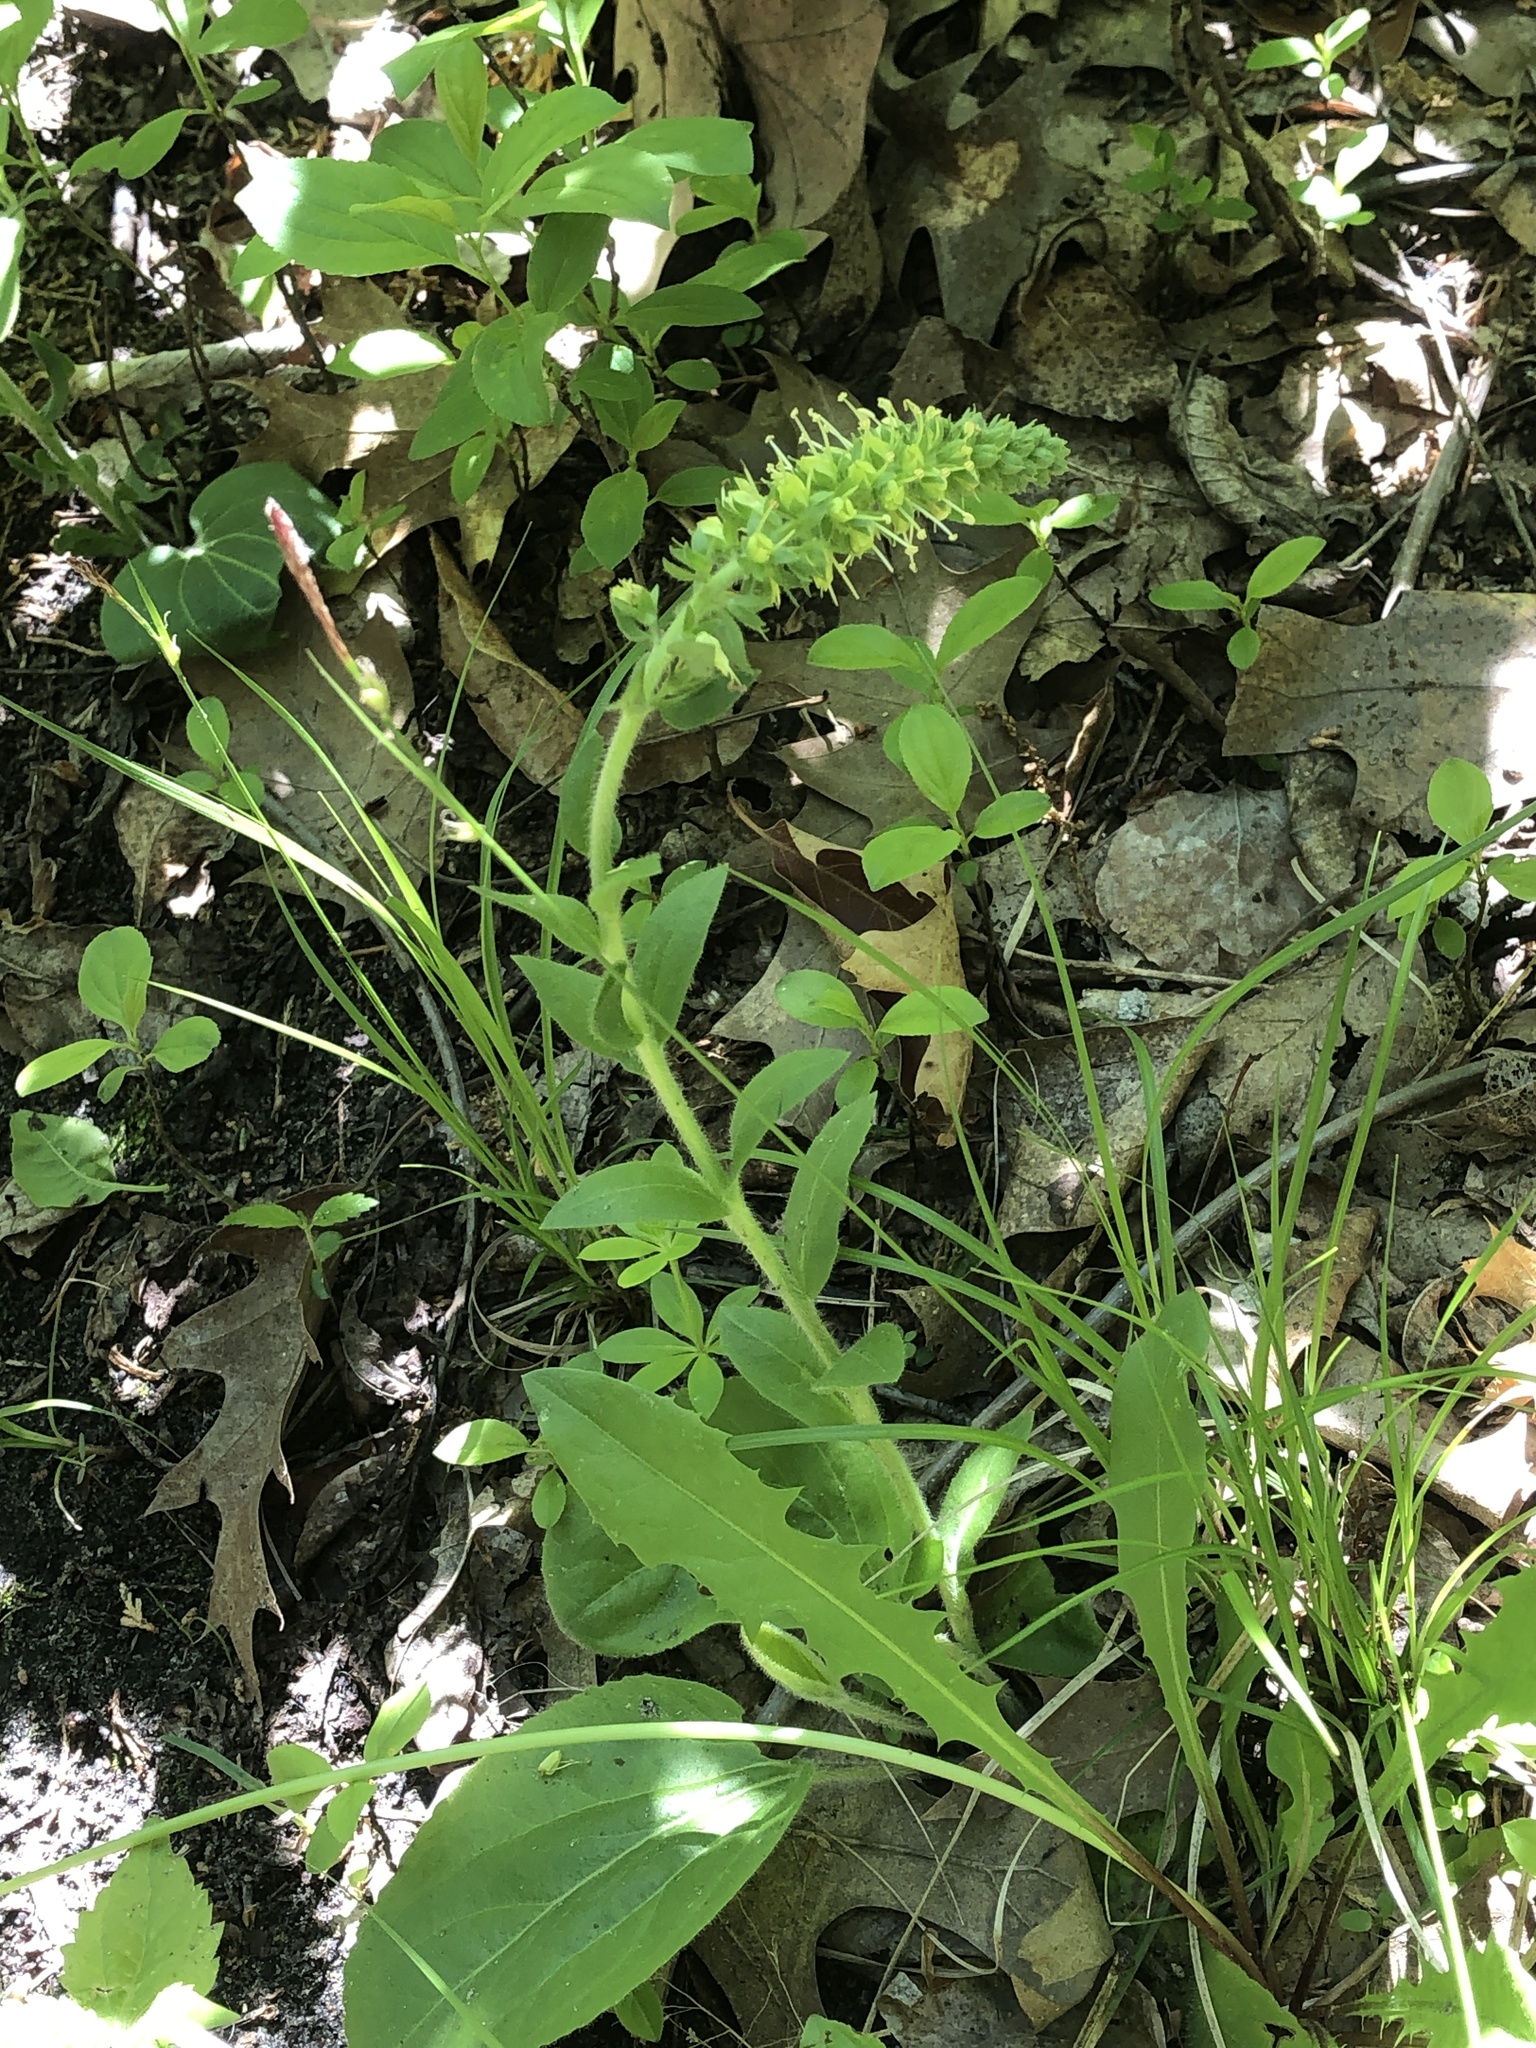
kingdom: Plantae
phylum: Tracheophyta
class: Magnoliopsida
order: Lamiales
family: Plantaginaceae
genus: Synthyris
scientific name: Synthyris bullii
